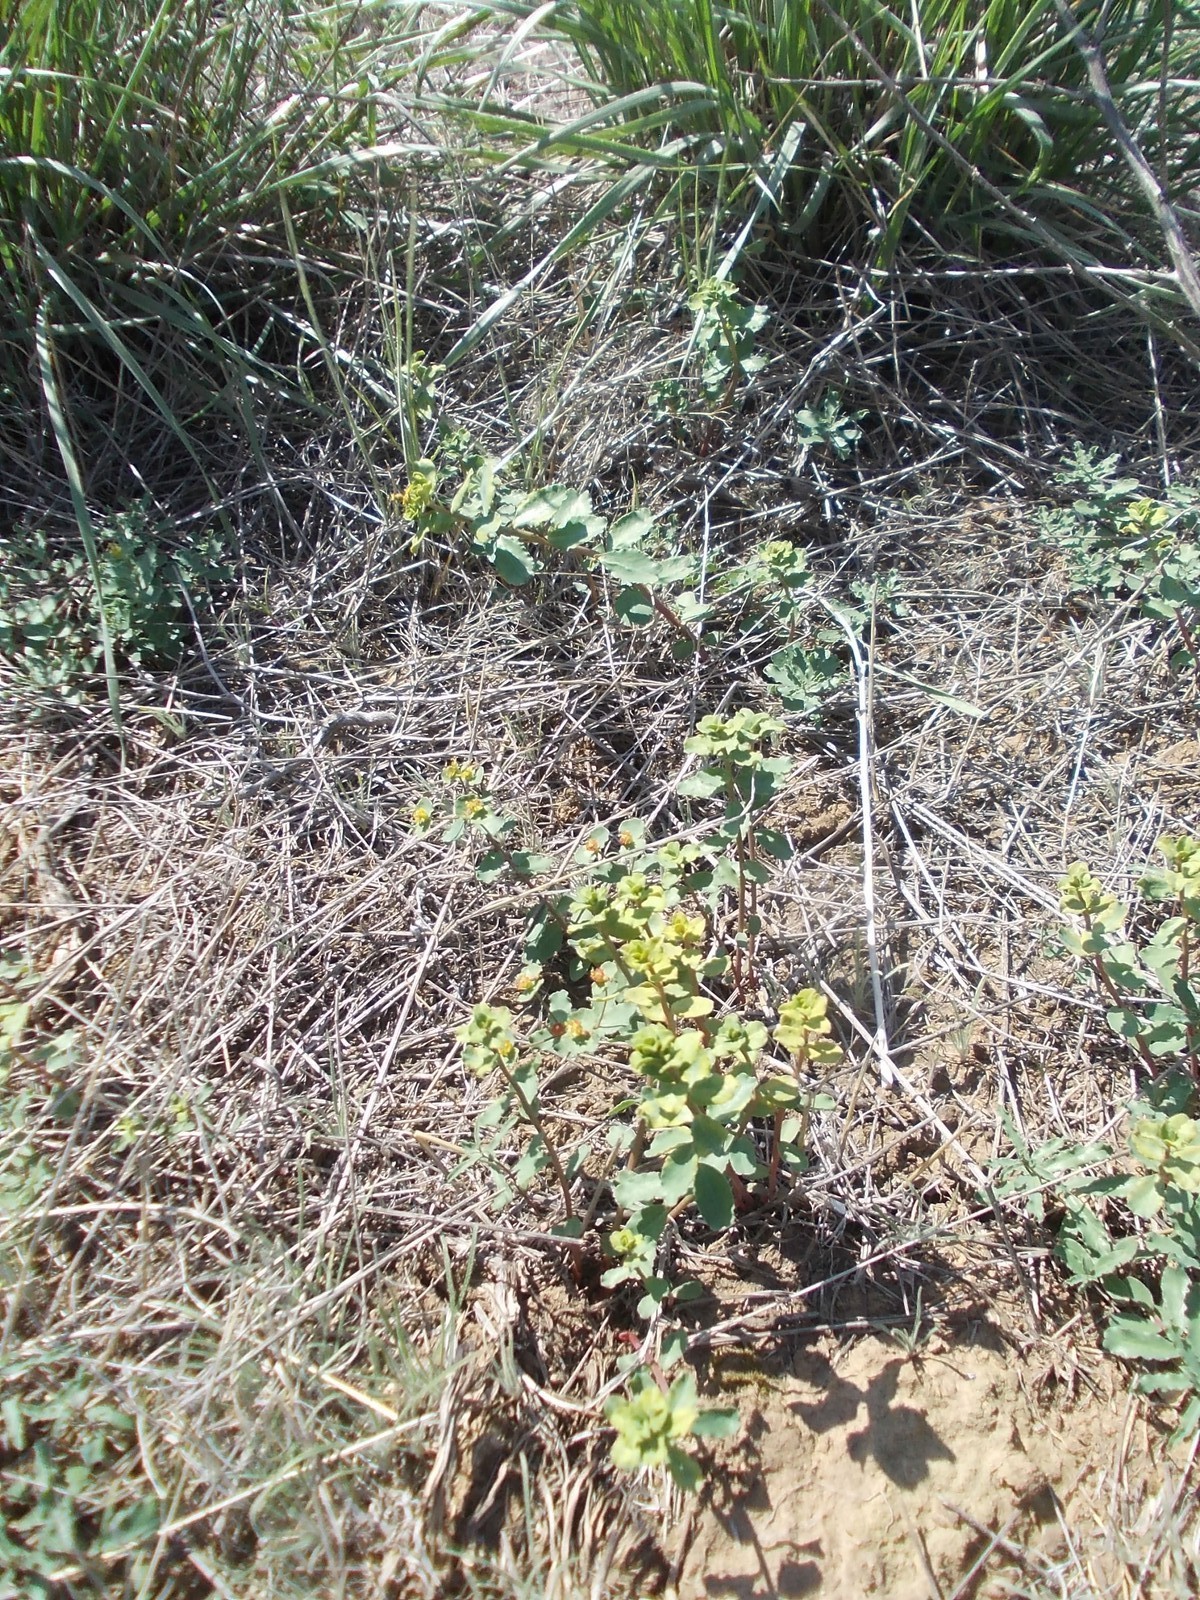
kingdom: Plantae
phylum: Tracheophyta
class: Magnoliopsida
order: Malpighiales
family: Euphorbiaceae
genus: Euphorbia
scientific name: Euphorbia undulata
